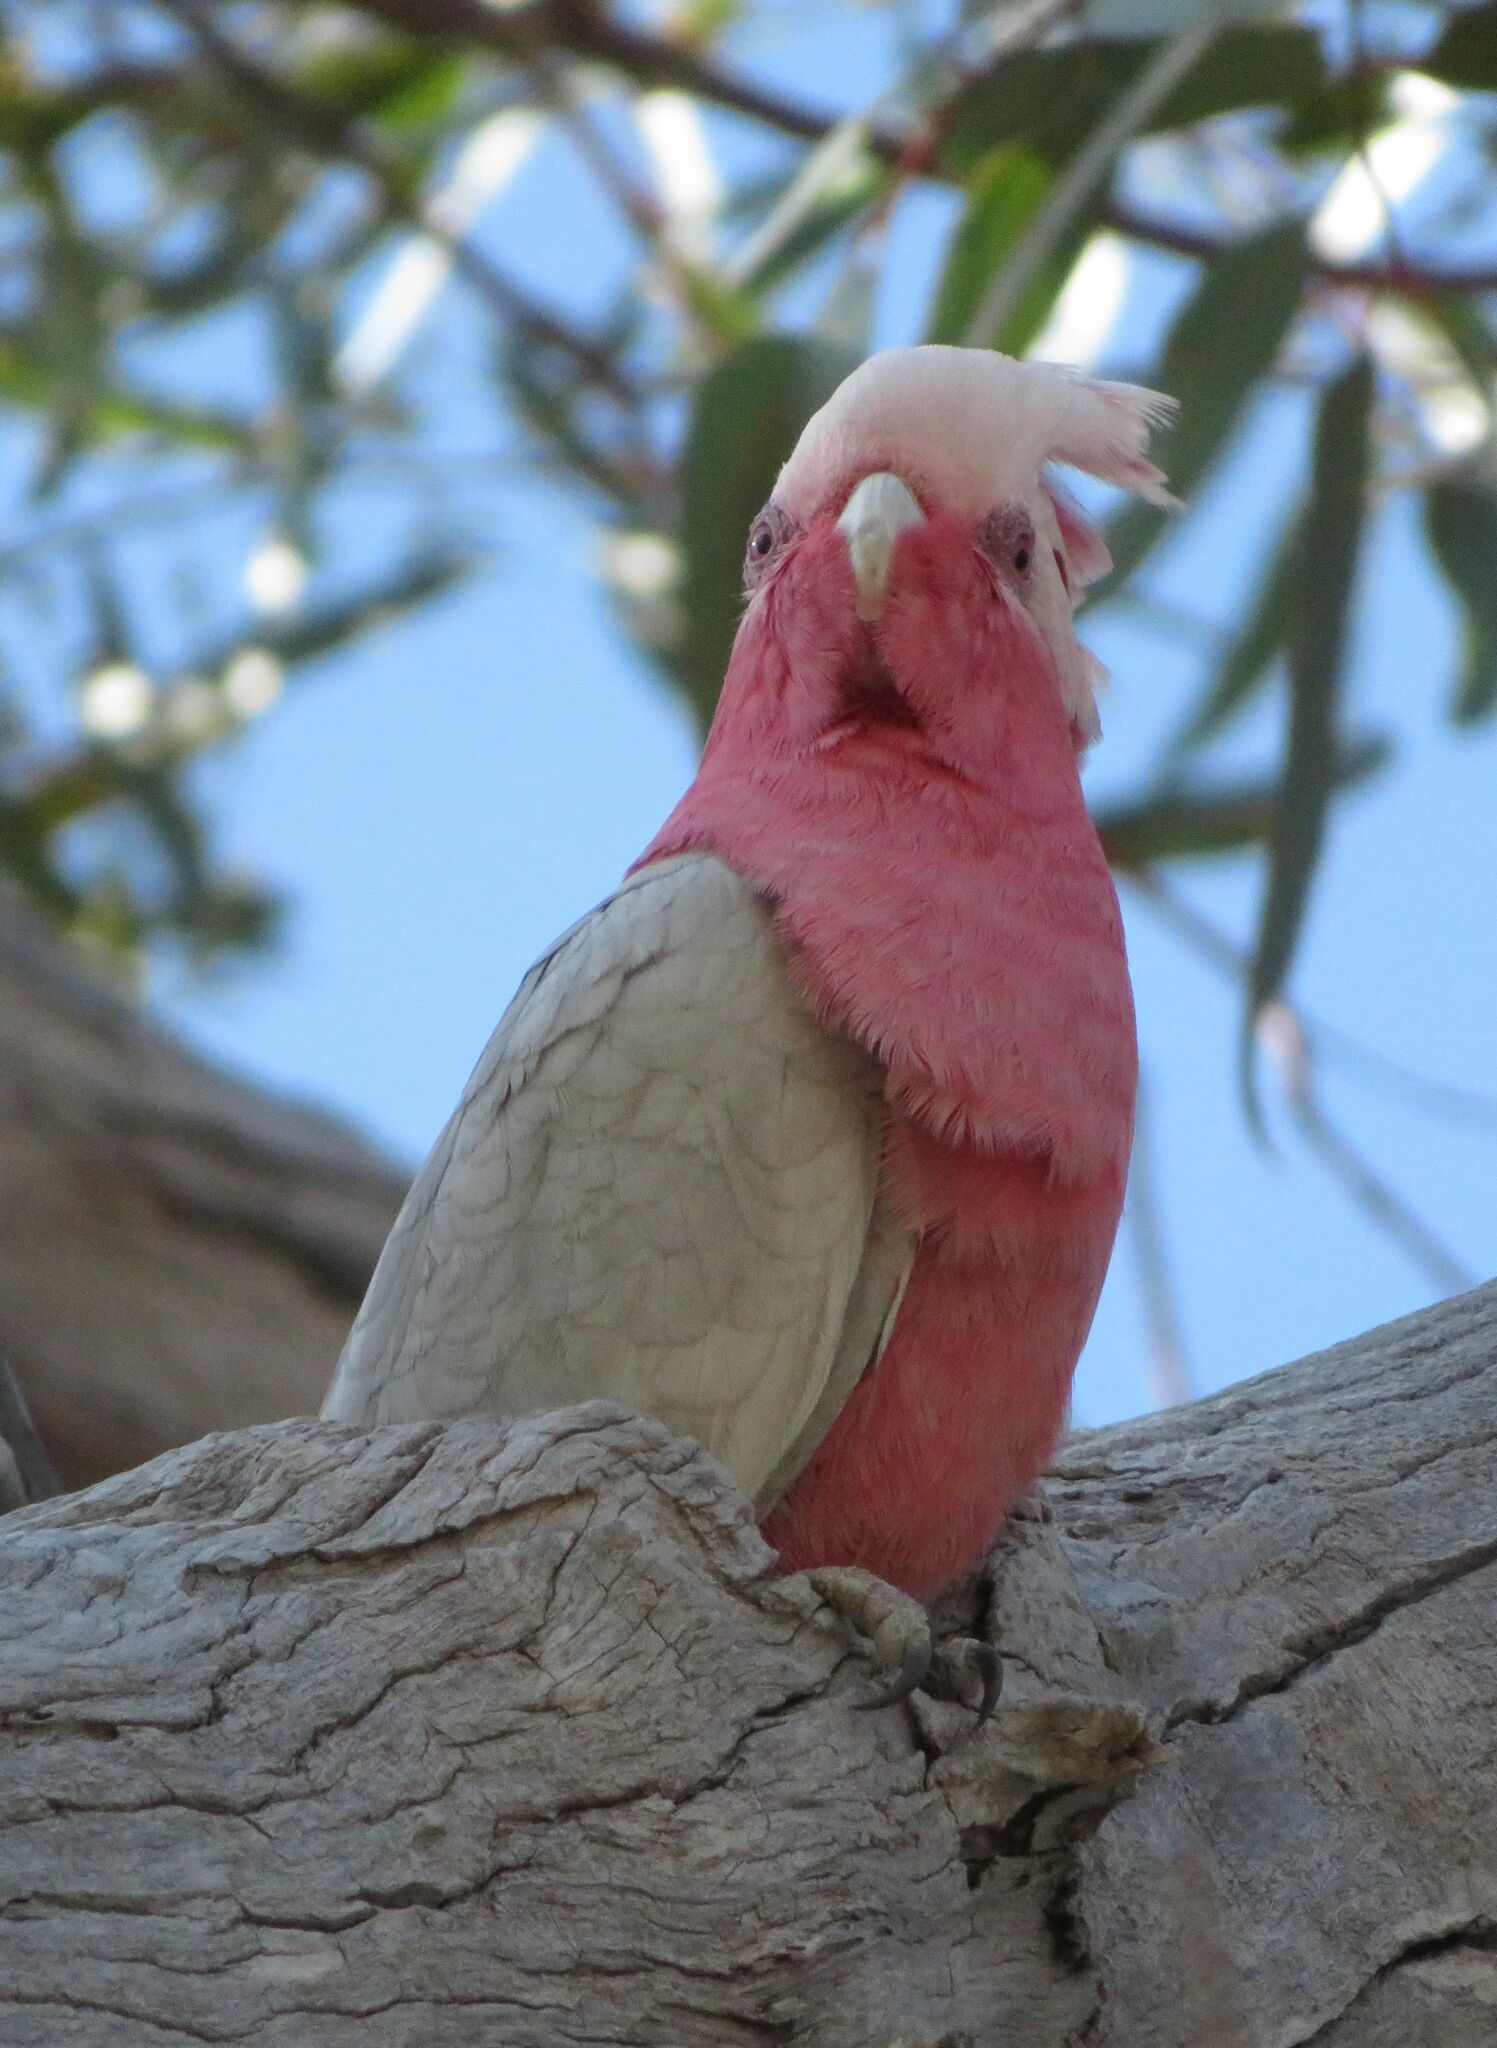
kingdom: Animalia
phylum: Chordata
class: Aves
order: Psittaciformes
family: Psittacidae
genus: Eolophus
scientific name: Eolophus roseicapilla
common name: Galah
